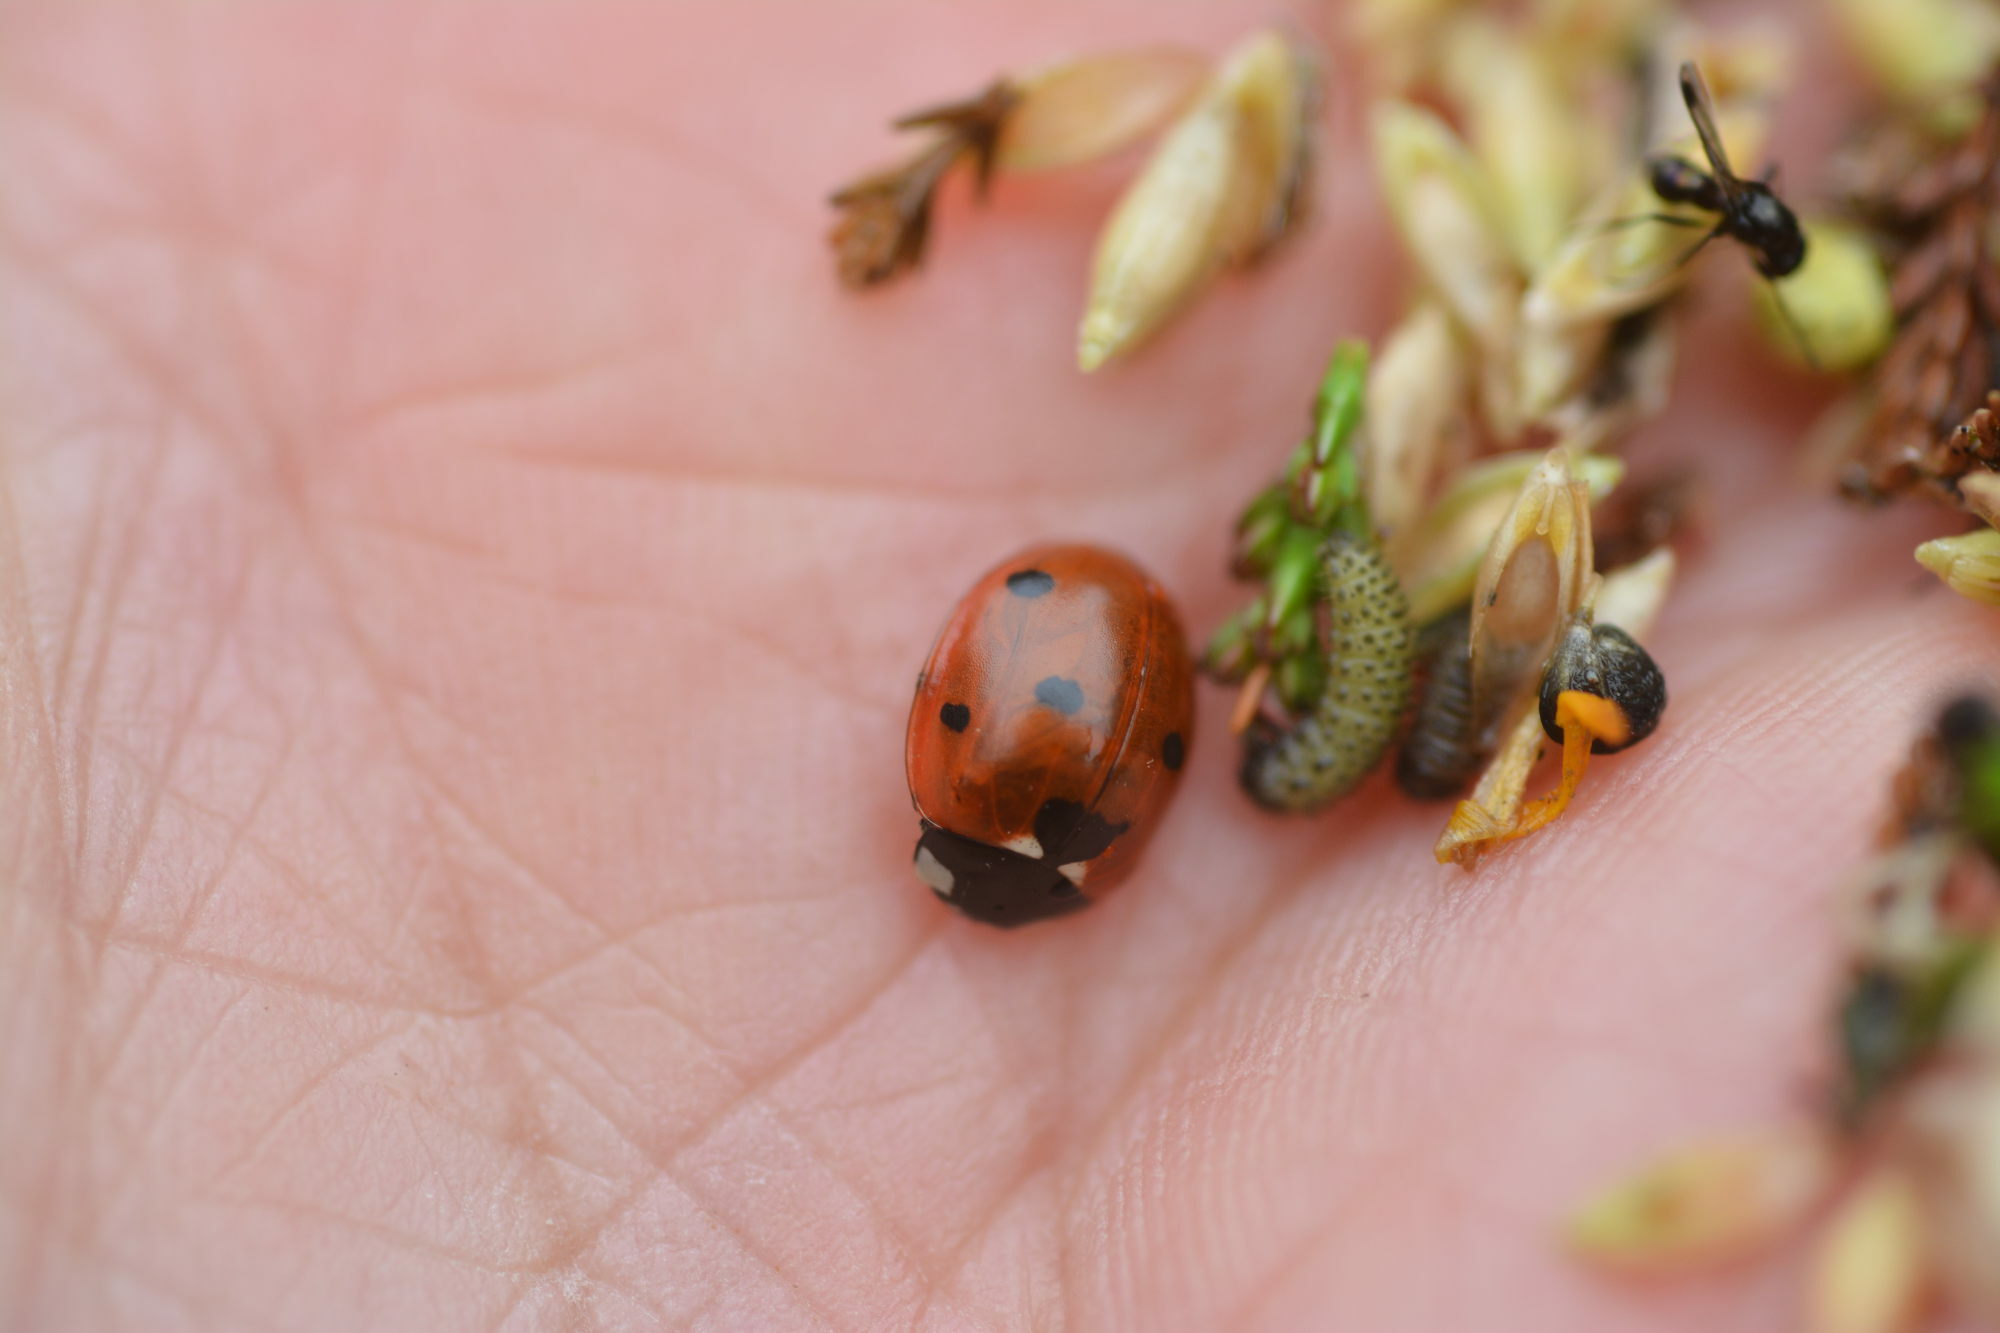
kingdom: Animalia
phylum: Arthropoda
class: Insecta
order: Coleoptera
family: Coccinellidae
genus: Coccinella
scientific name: Coccinella septempunctata
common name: Sevenspotted lady beetle
